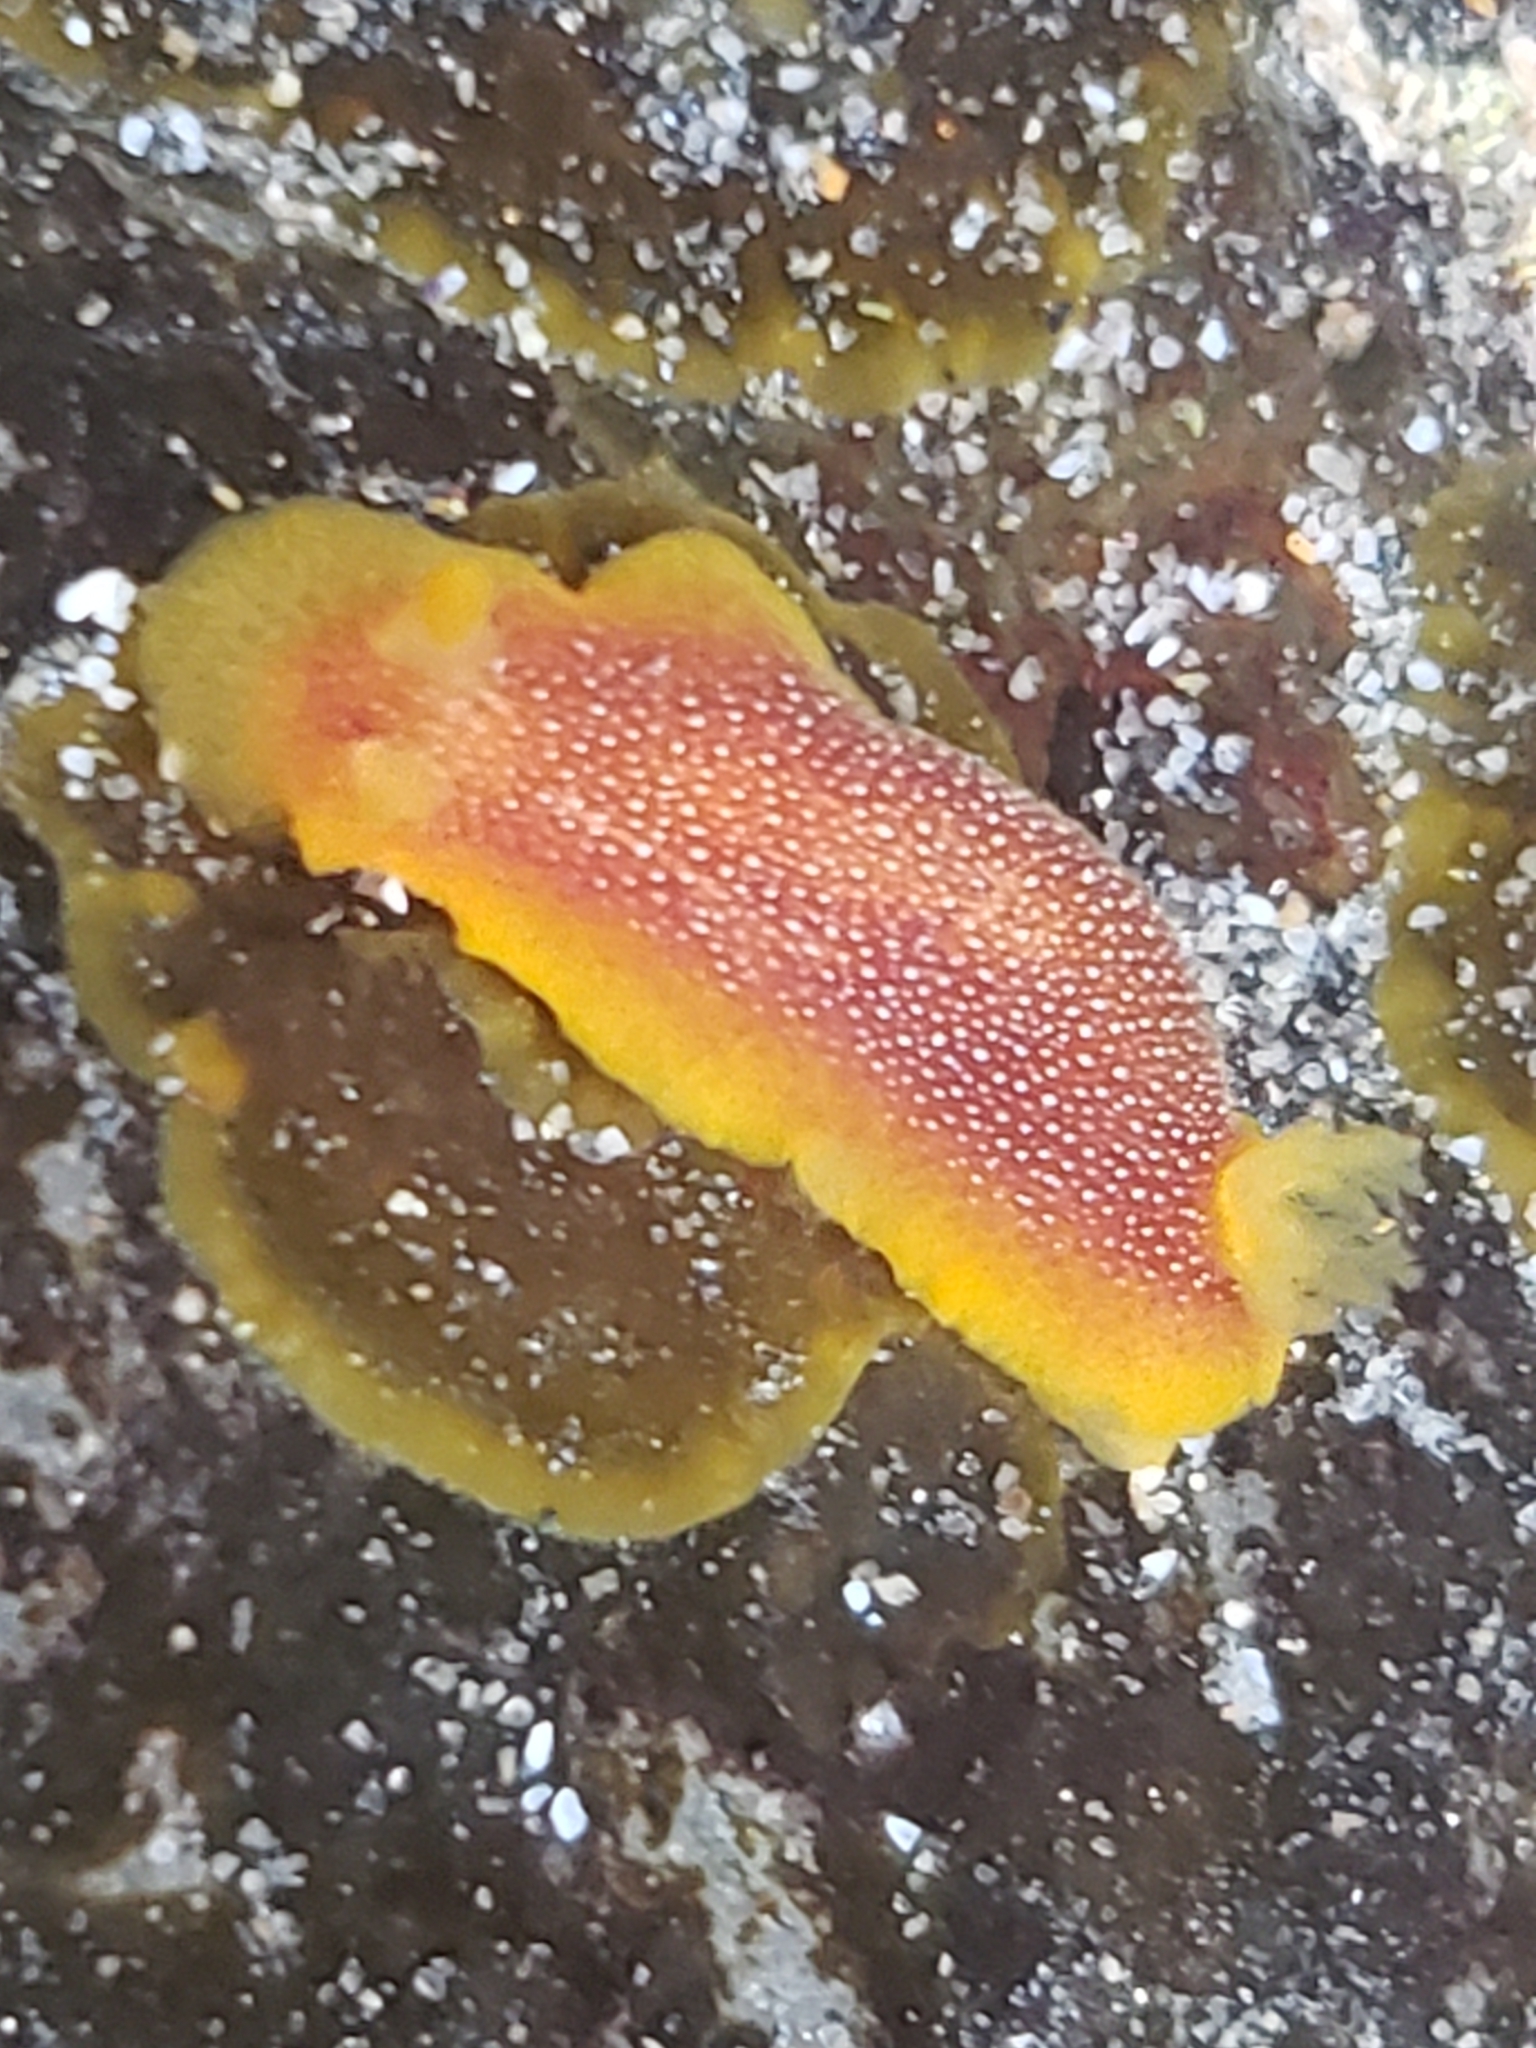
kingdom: Animalia
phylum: Mollusca
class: Gastropoda
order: Nudibranchia
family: Dendrodorididae
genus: Doriopsilla
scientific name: Doriopsilla gemela
